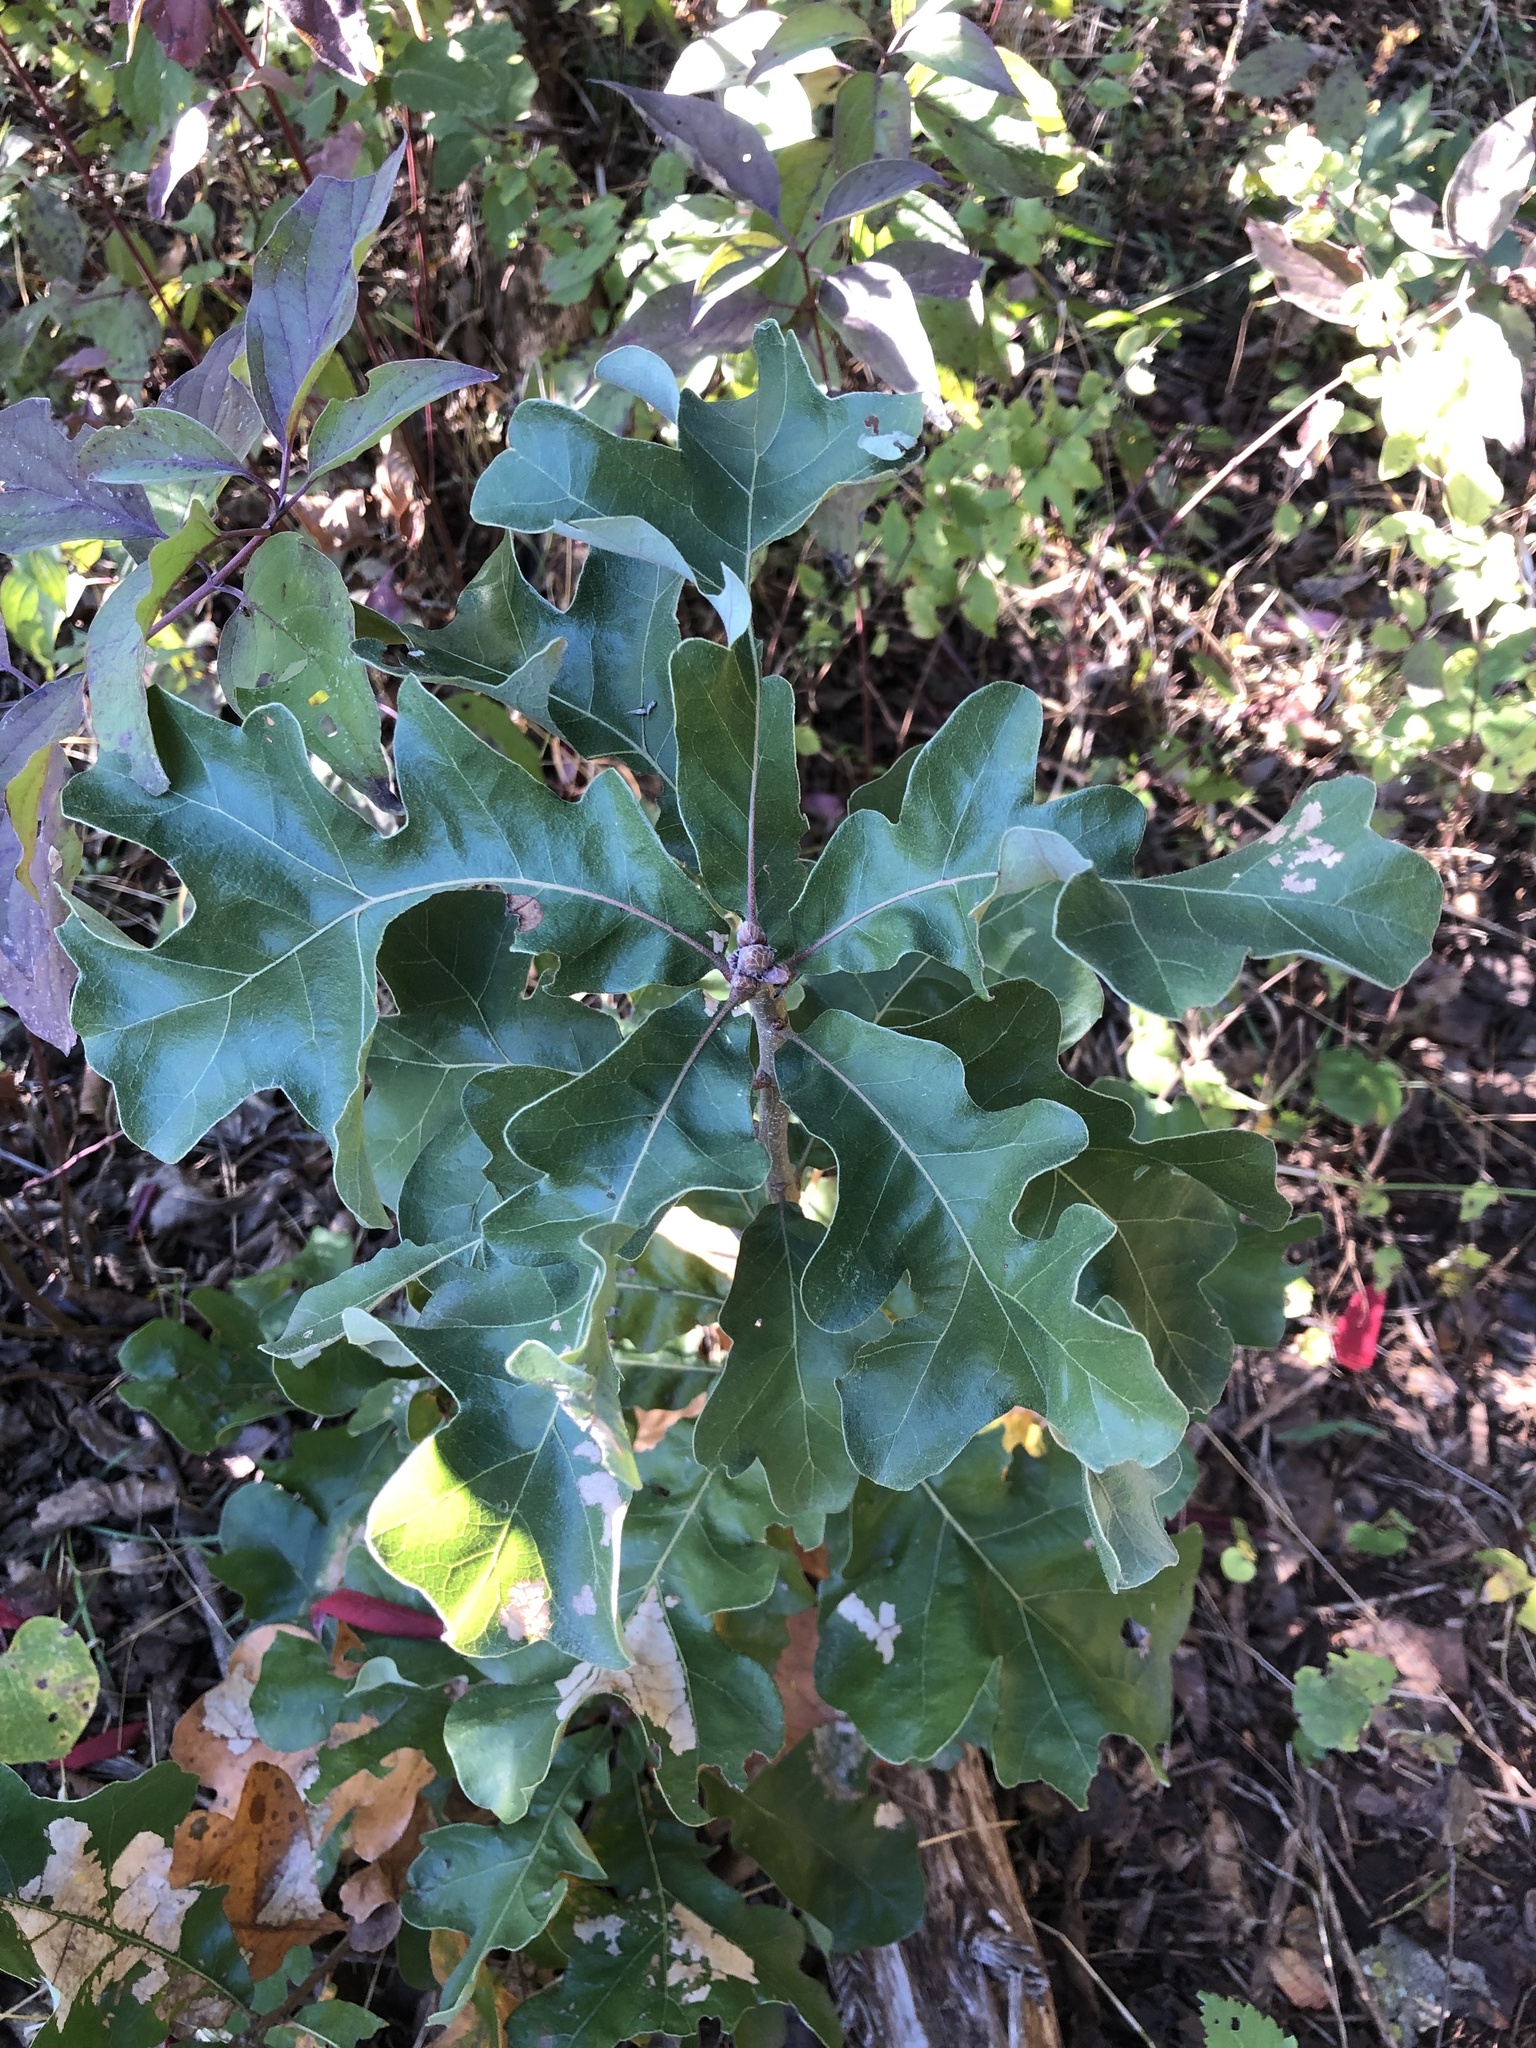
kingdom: Plantae
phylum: Tracheophyta
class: Magnoliopsida
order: Fagales
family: Fagaceae
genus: Quercus
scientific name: Quercus stellata
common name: Post oak
